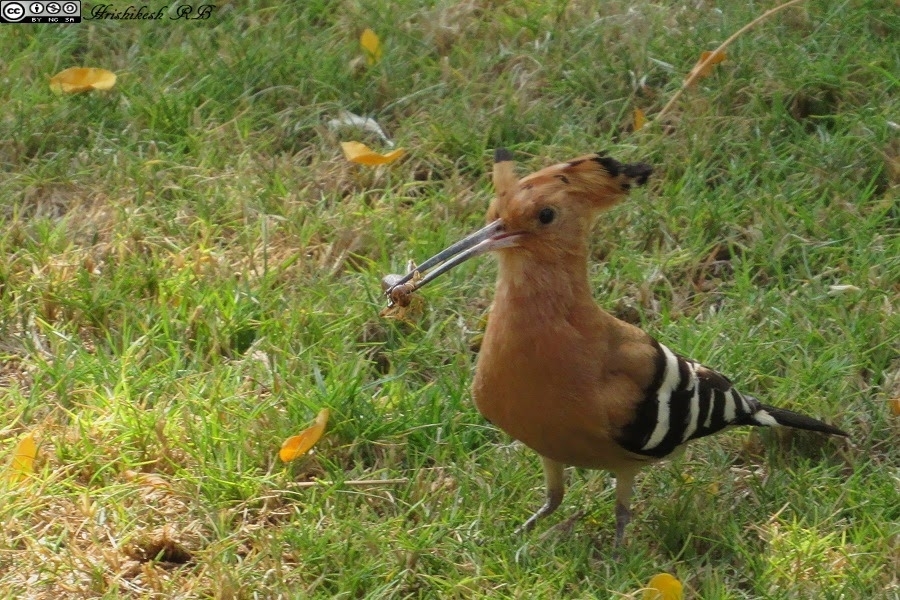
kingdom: Animalia
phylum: Chordata
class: Aves
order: Bucerotiformes
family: Upupidae
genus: Upupa
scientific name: Upupa epops
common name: Eurasian hoopoe
